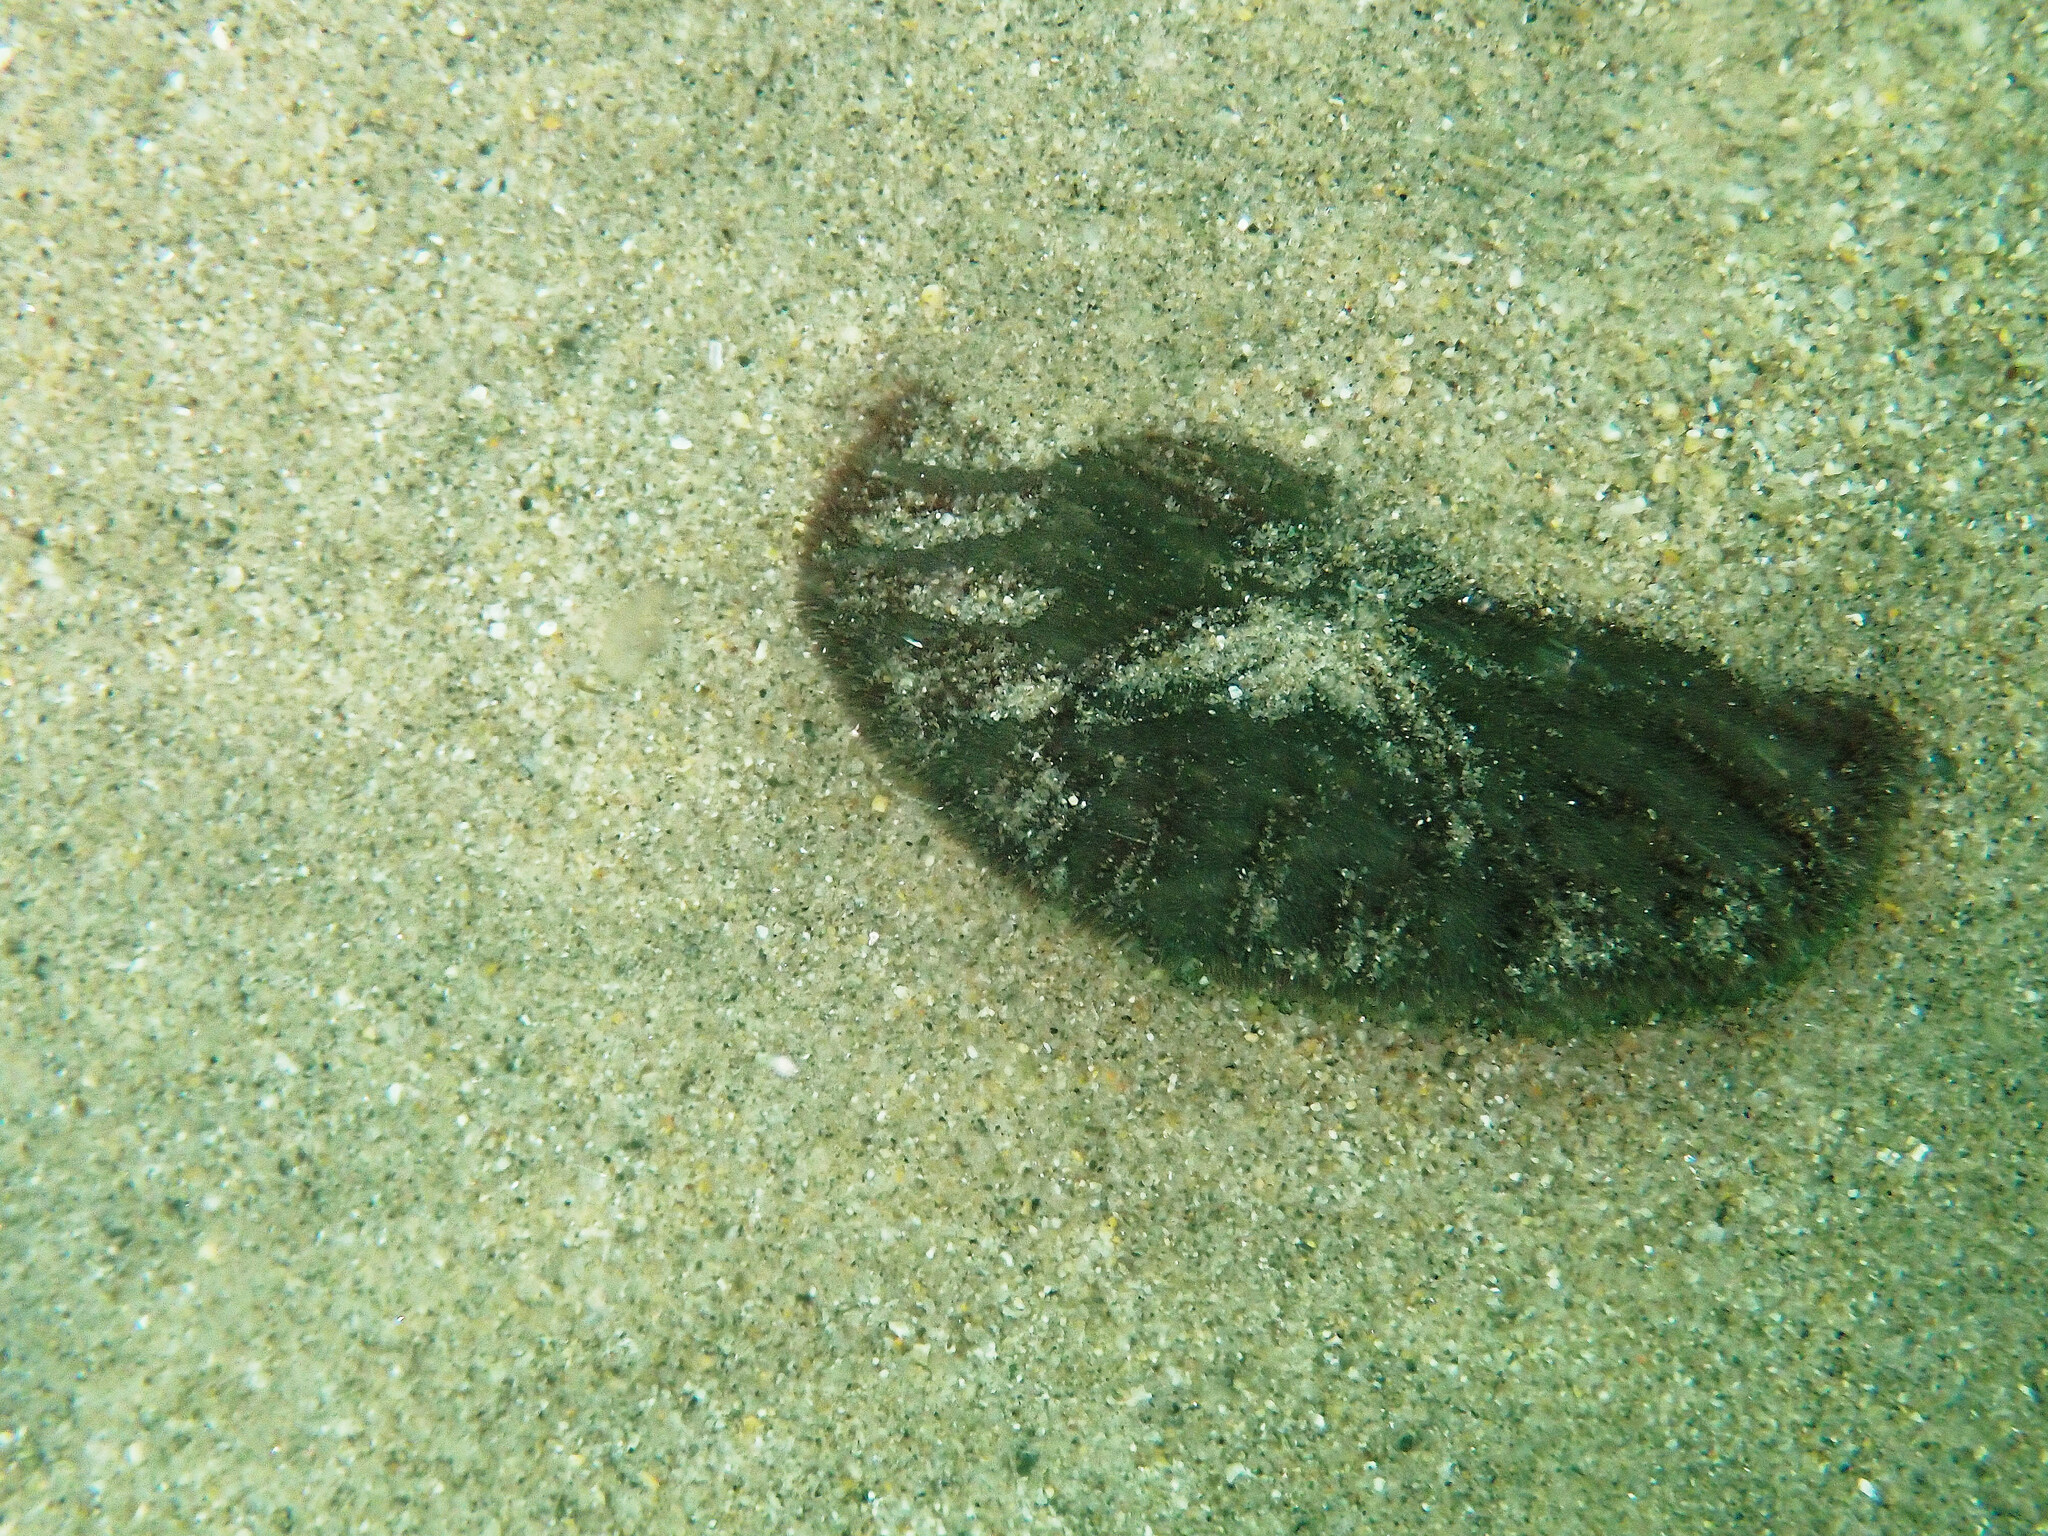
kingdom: Animalia
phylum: Echinodermata
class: Echinoidea
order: Echinolampadacea
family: Dendrasteridae
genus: Dendraster
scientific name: Dendraster excentricus
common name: Eccentric sand dollar sea urchin
